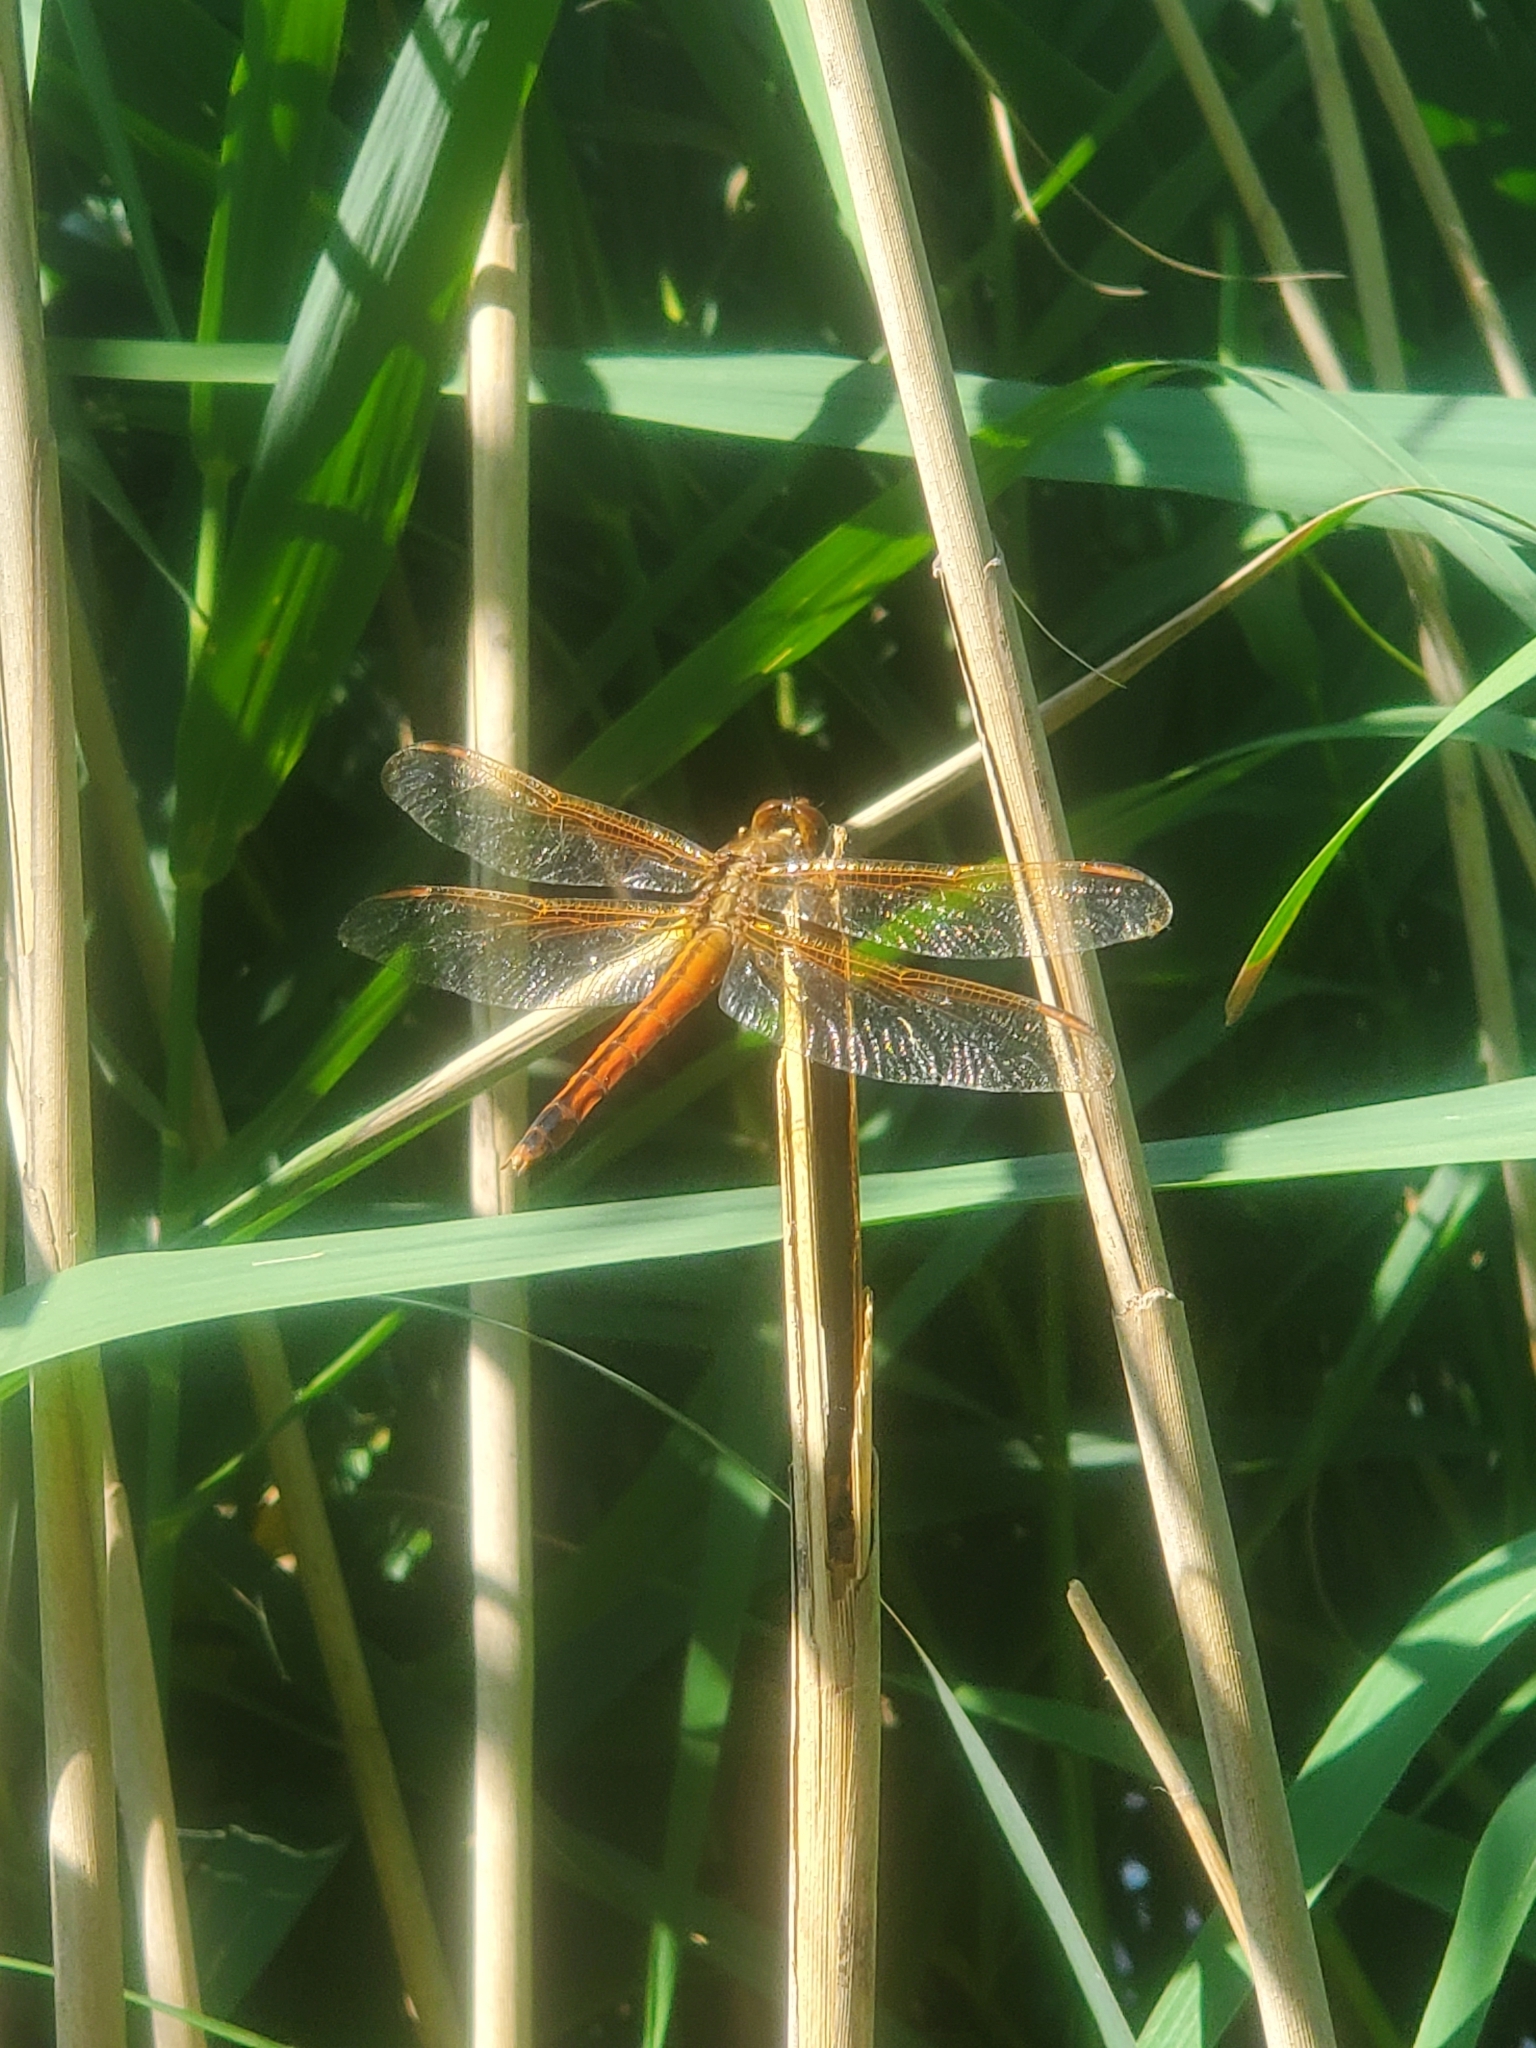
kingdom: Animalia
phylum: Arthropoda
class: Insecta
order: Odonata
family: Libellulidae
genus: Libellula
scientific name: Libellula needhami
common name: Needham's skimmer
